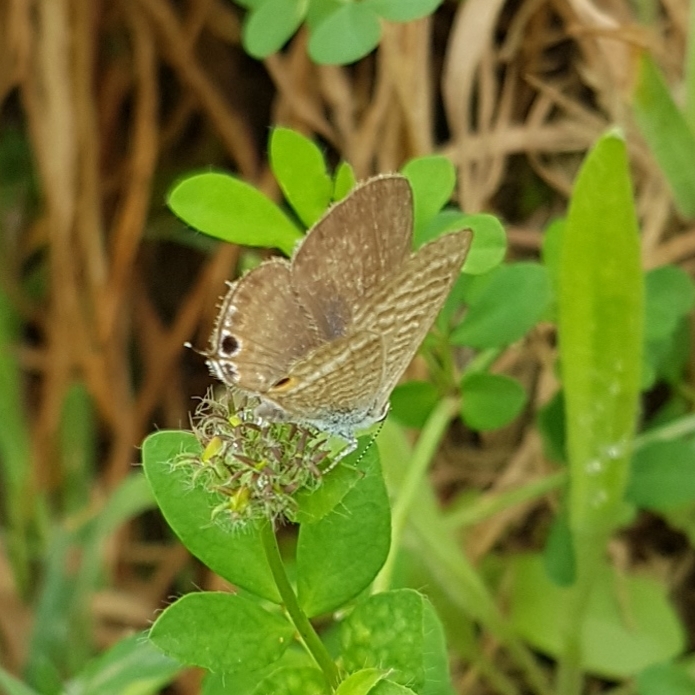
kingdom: Animalia
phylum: Arthropoda
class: Insecta
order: Lepidoptera
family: Lycaenidae
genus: Lampides
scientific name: Lampides boeticus
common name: Long-tailed blue
